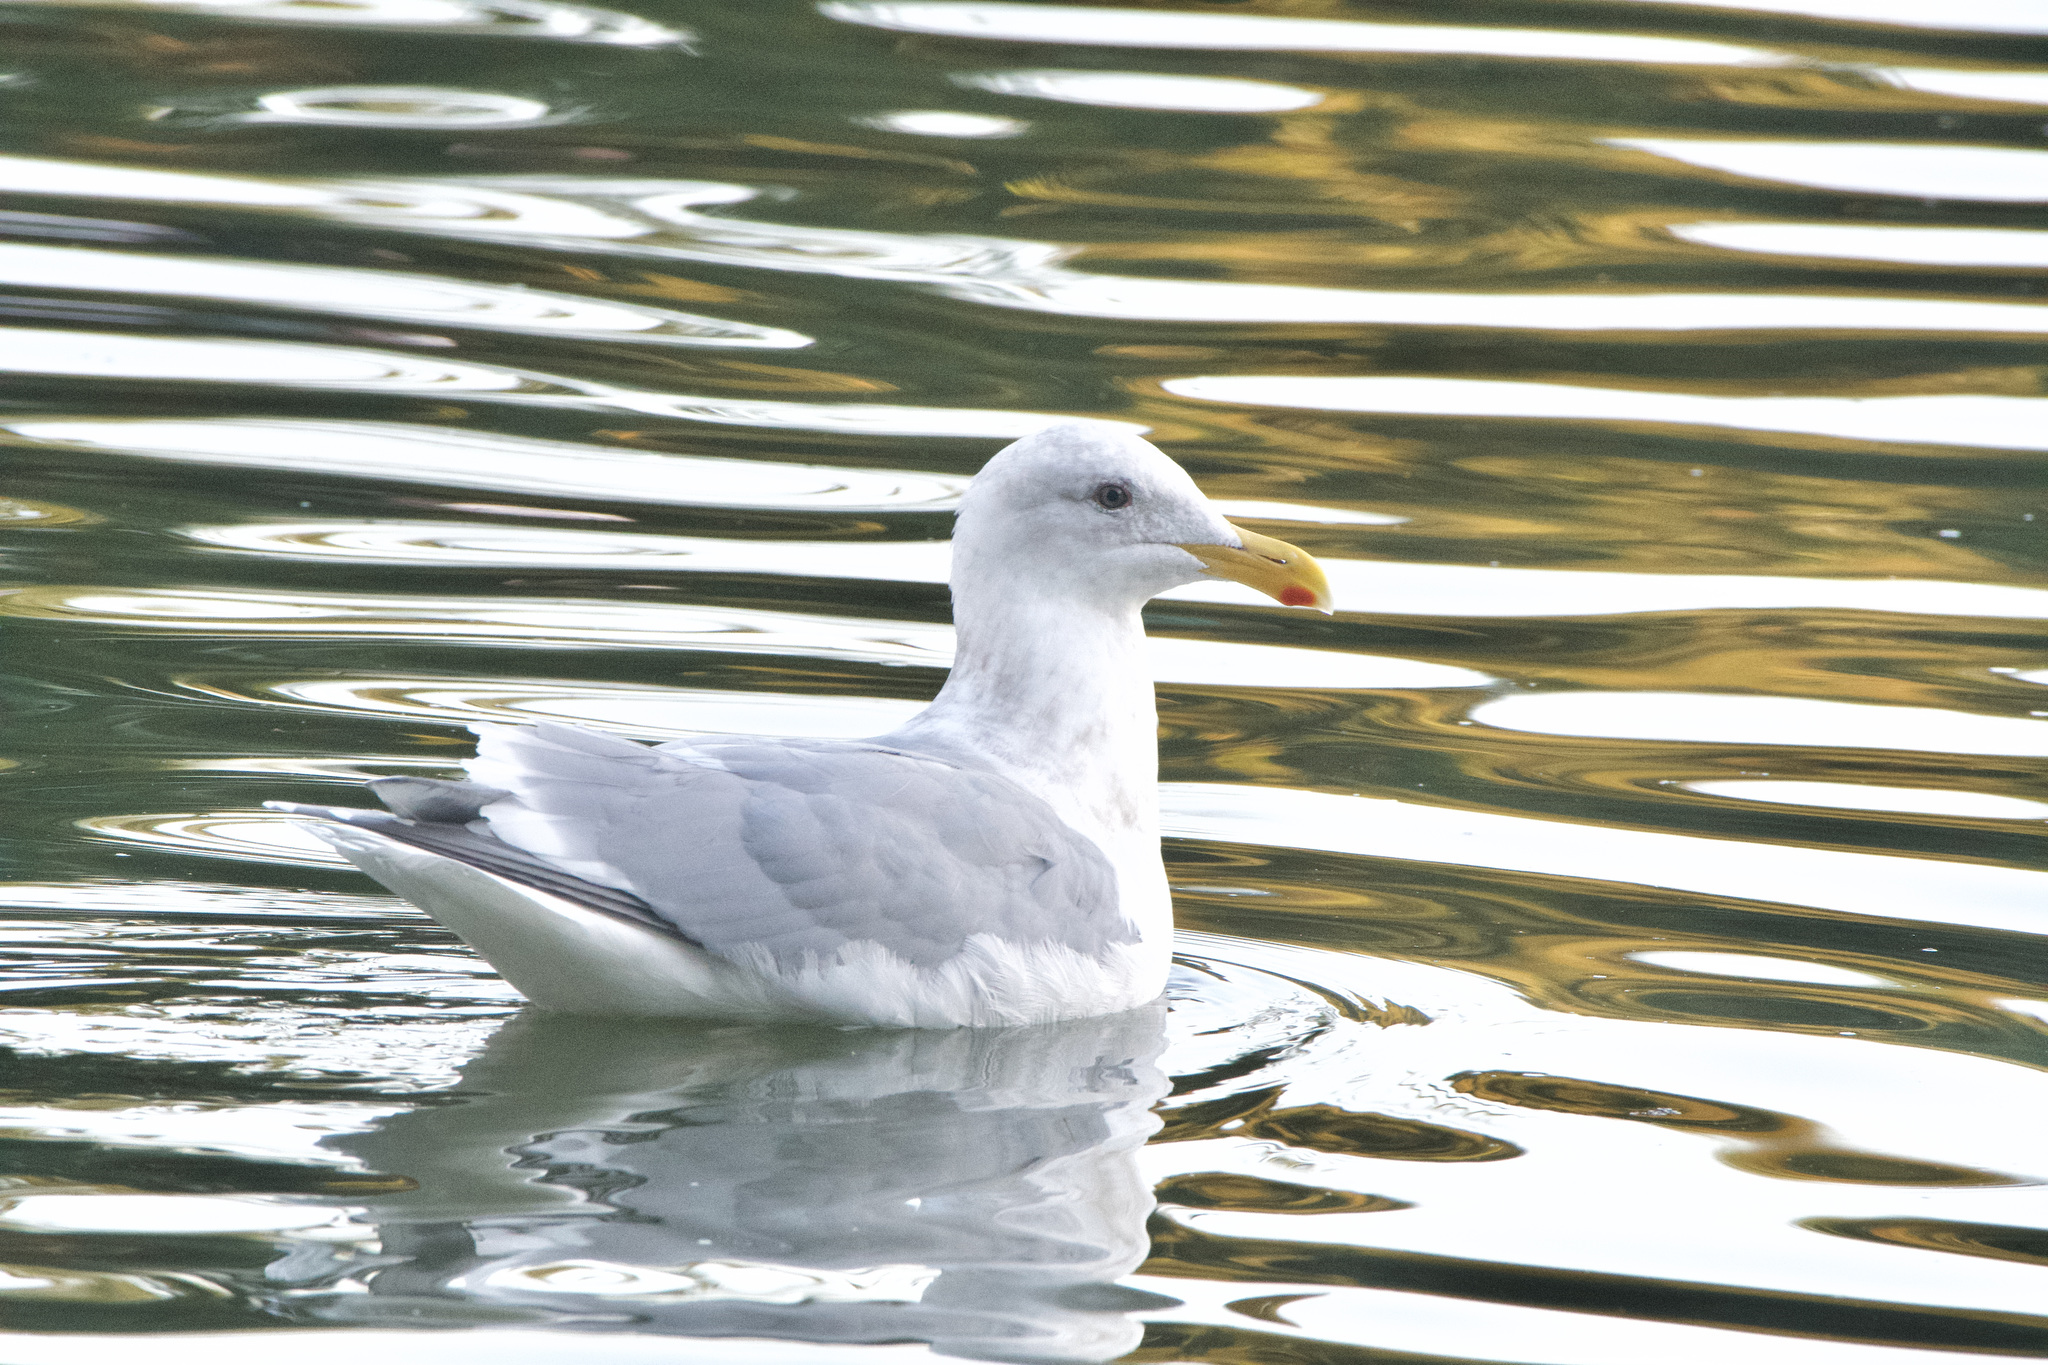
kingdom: Animalia
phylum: Chordata
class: Aves
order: Charadriiformes
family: Laridae
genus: Larus
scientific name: Larus
